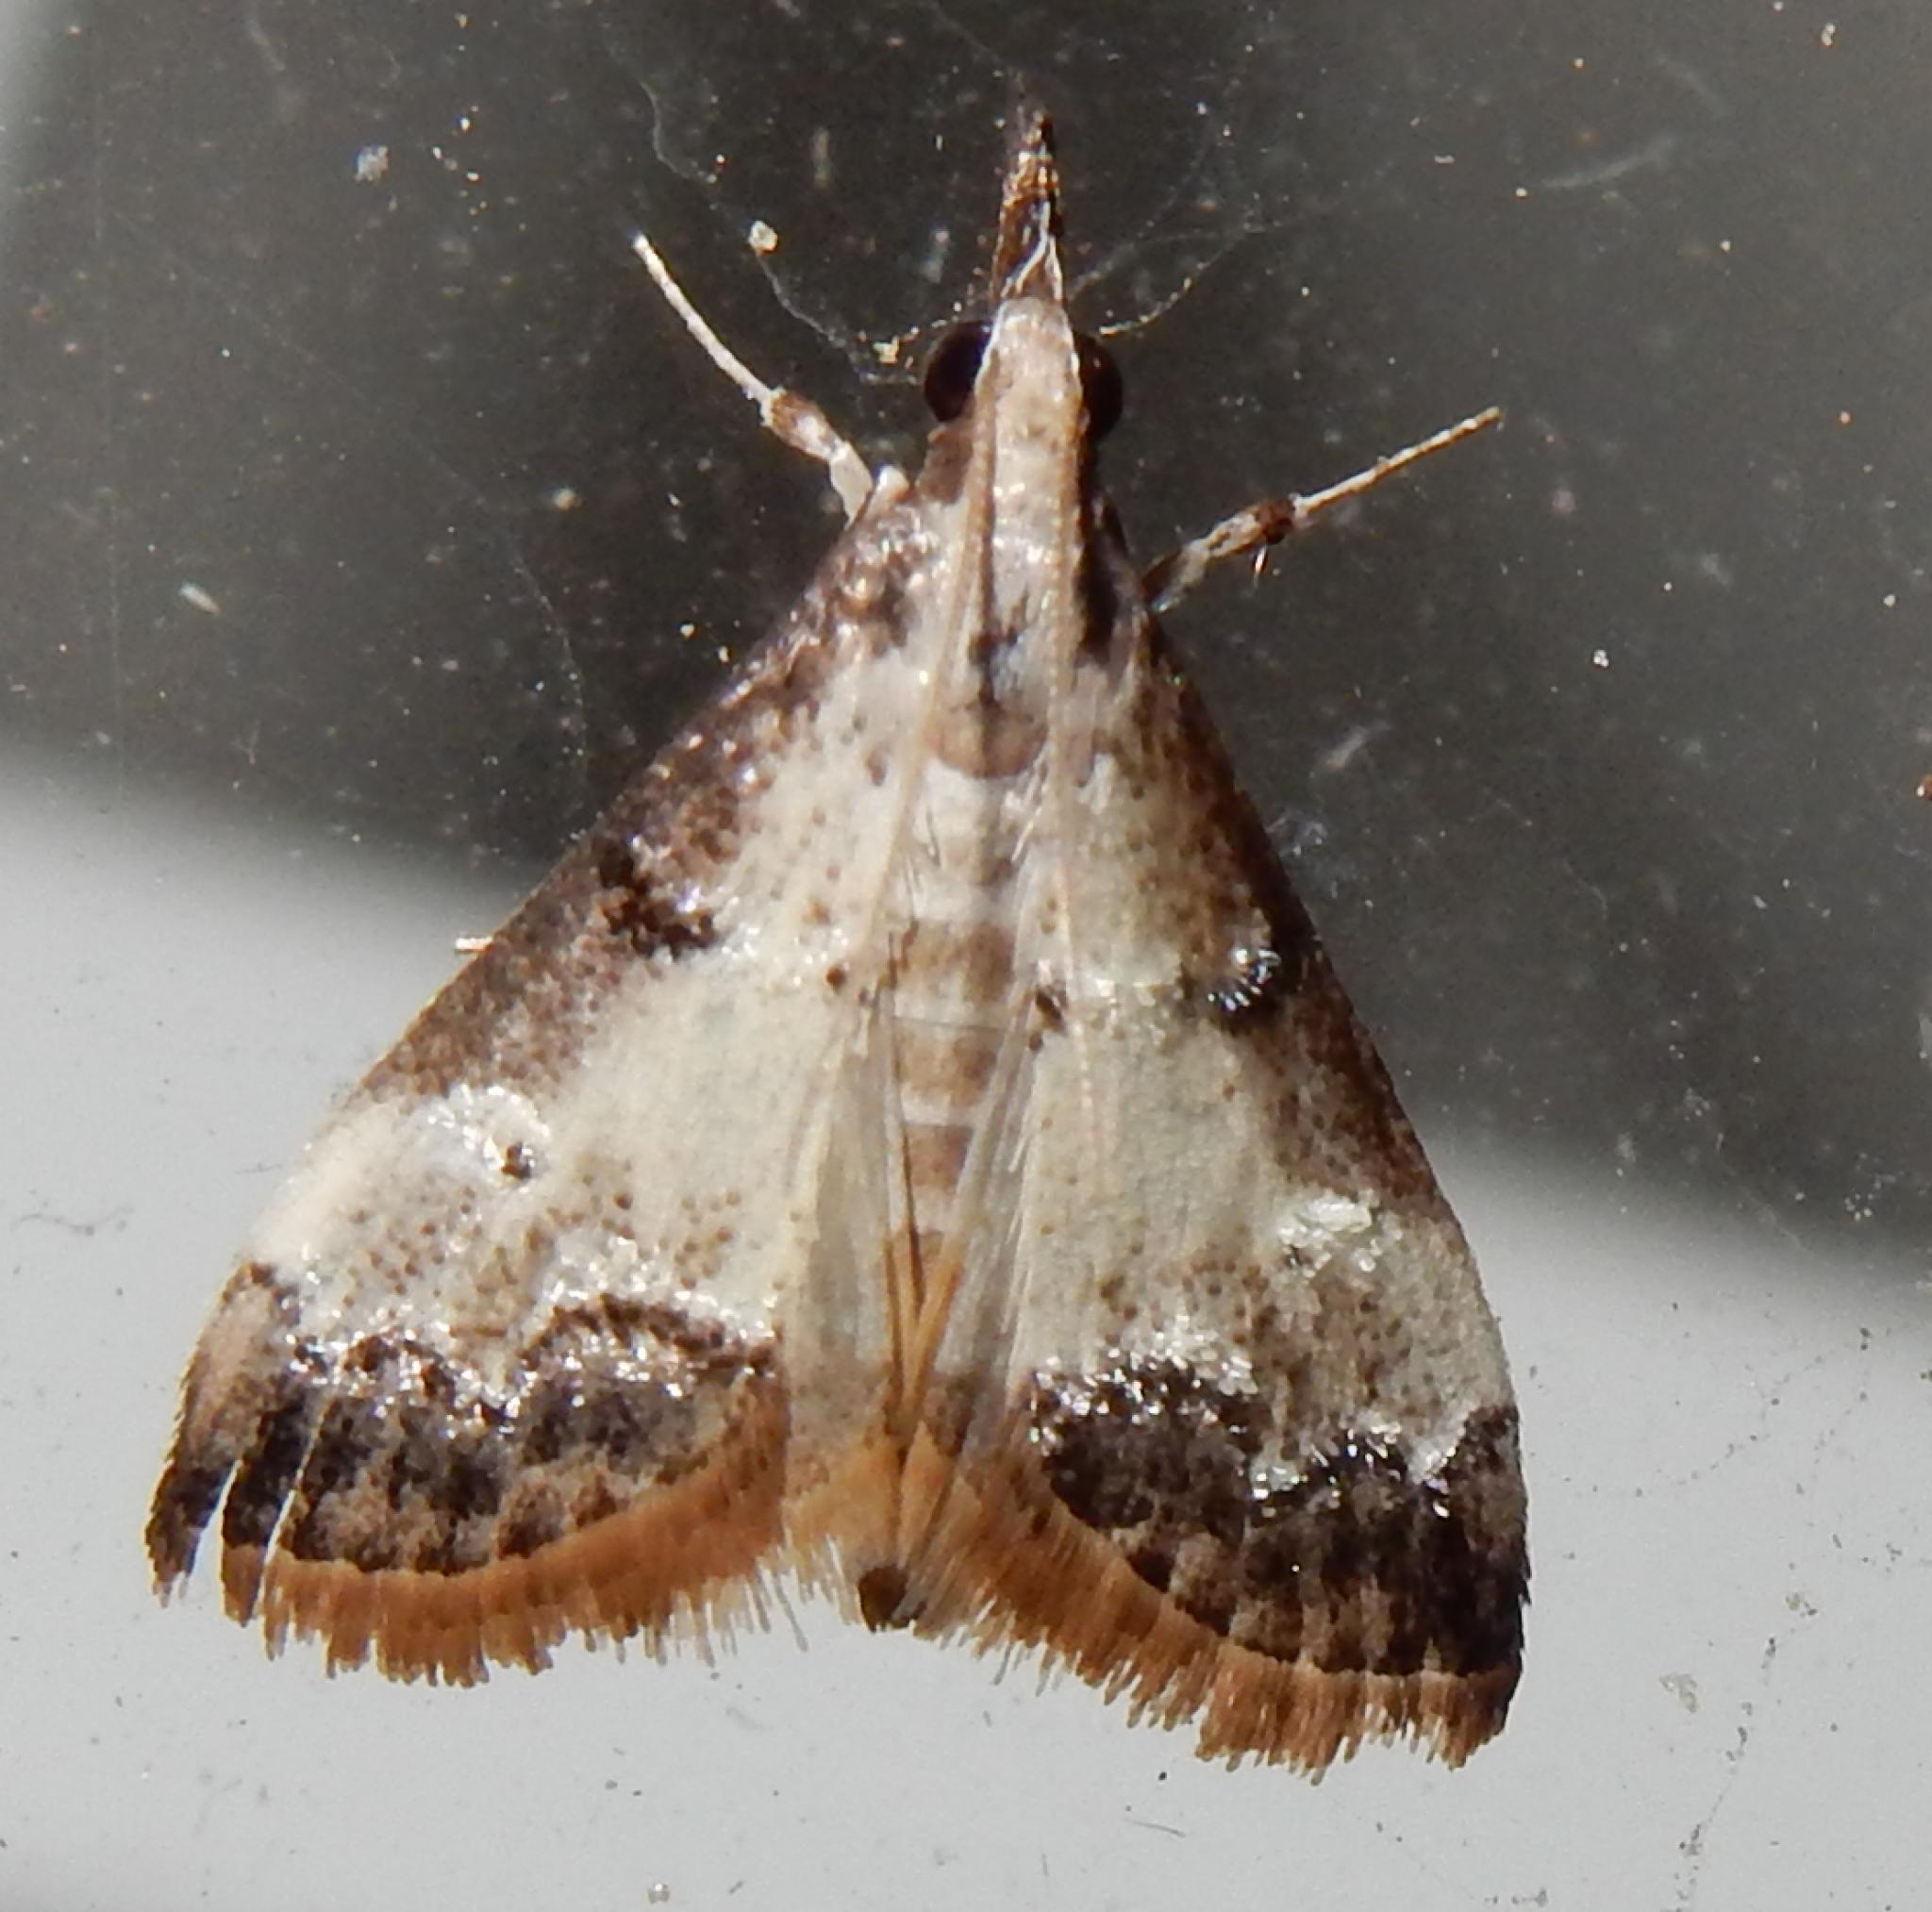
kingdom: Animalia
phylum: Arthropoda
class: Insecta
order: Lepidoptera
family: Crambidae
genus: Autocharis
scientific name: Autocharis jacobsalis
